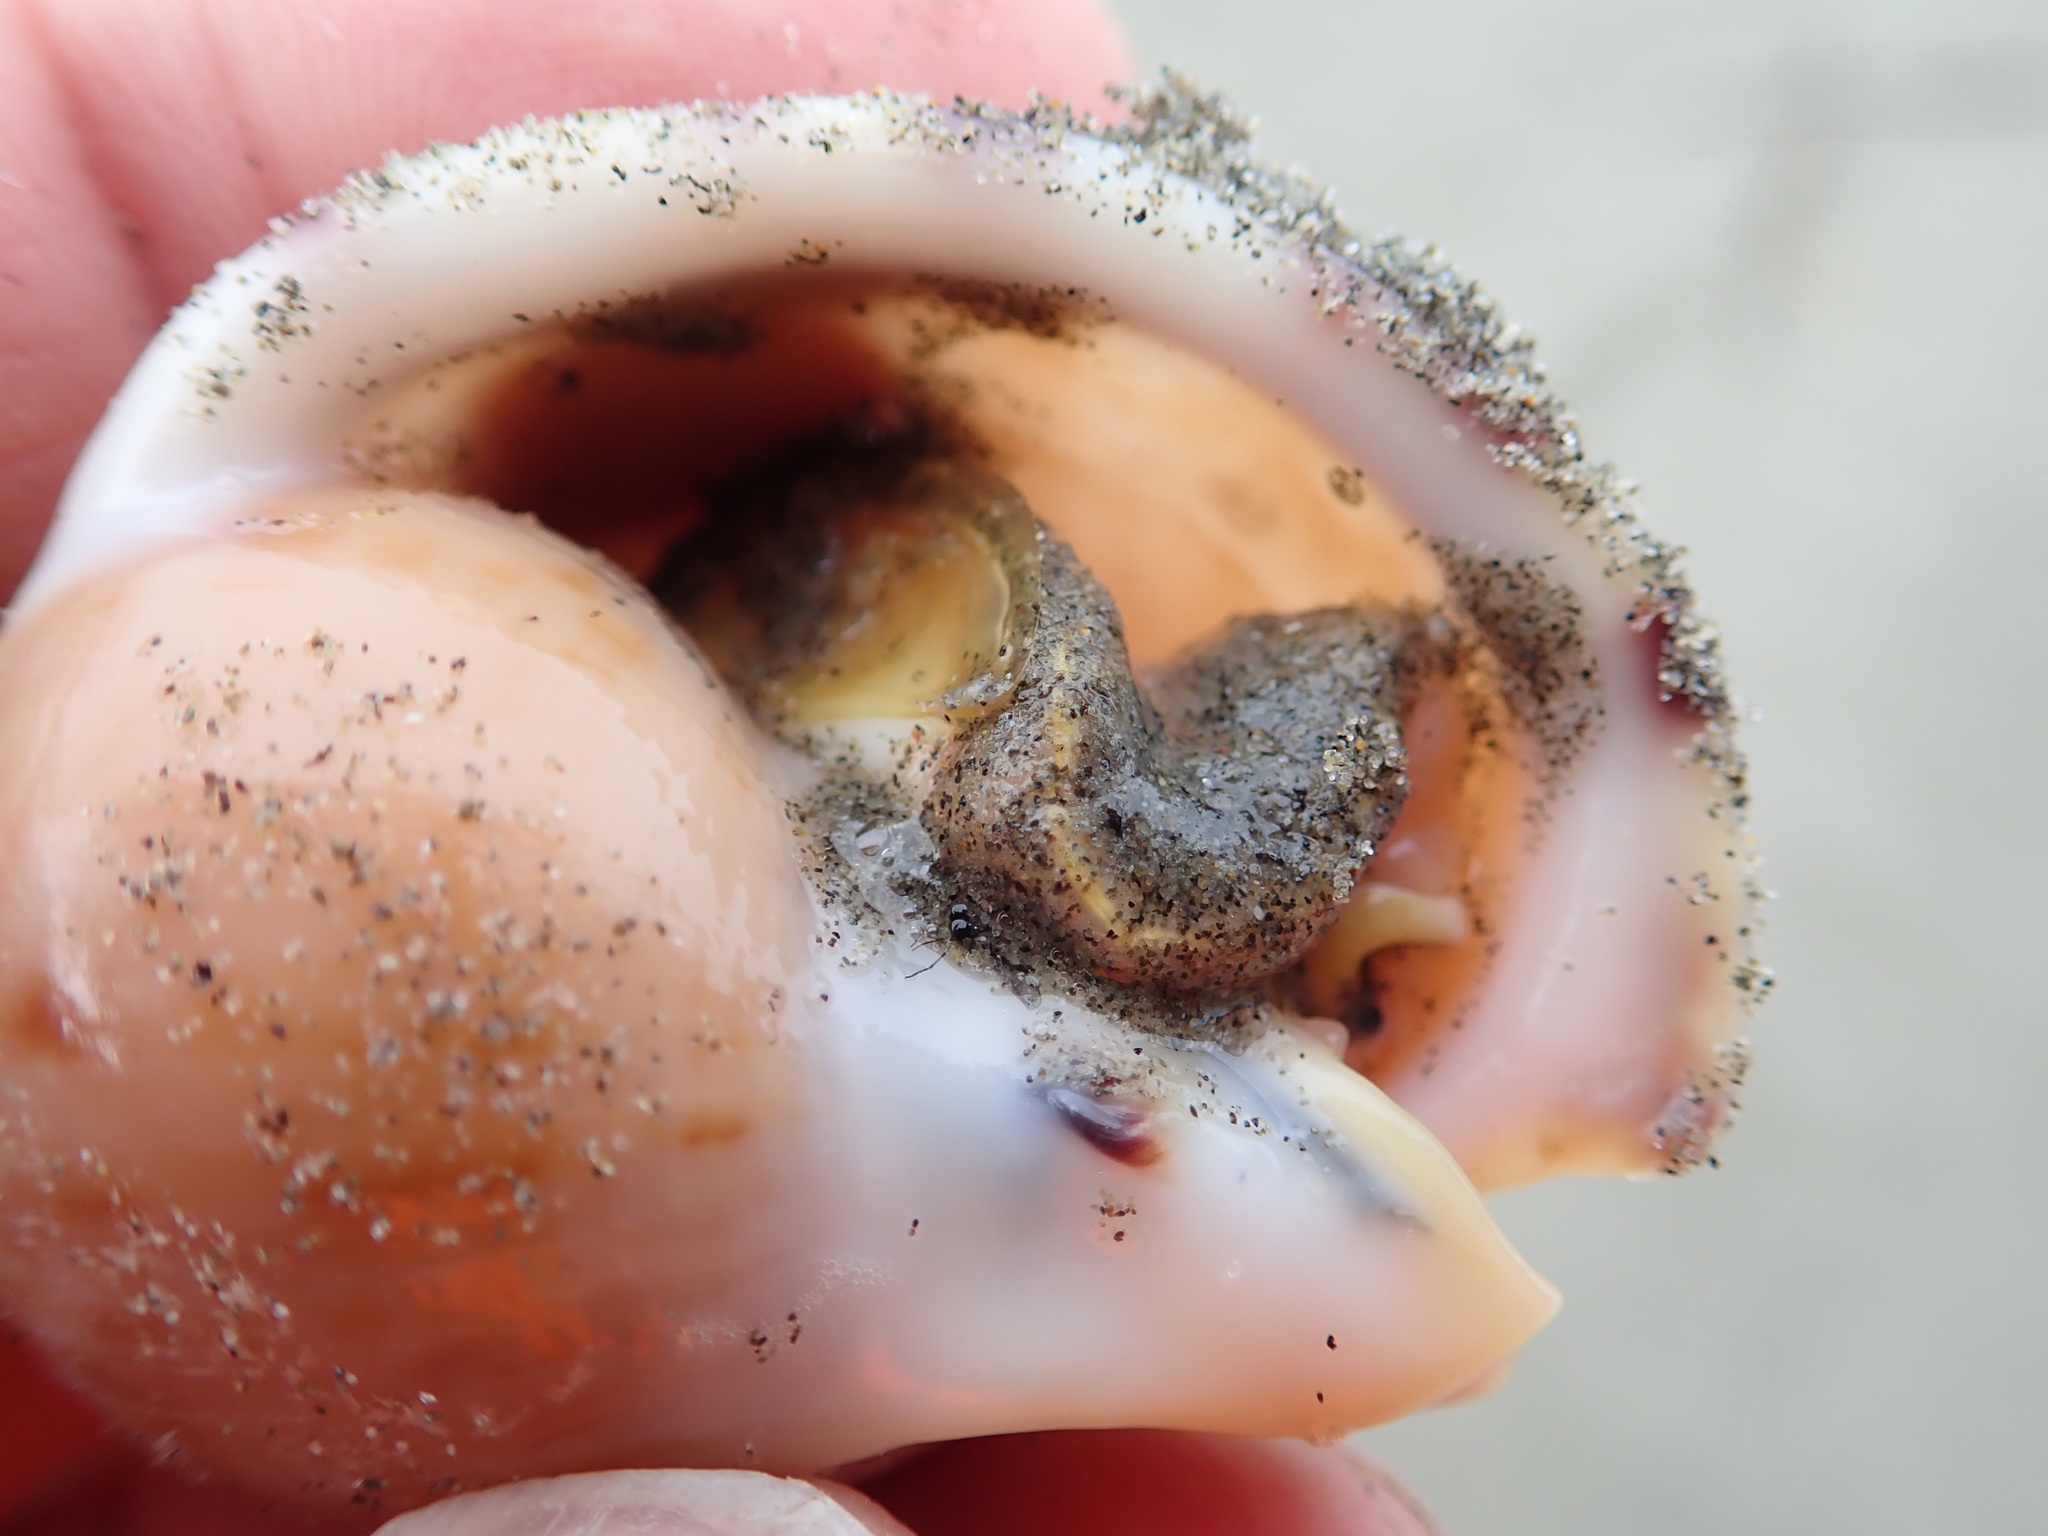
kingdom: Animalia
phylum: Mollusca
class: Gastropoda
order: Littorinimorpha
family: Cassidae
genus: Semicassis
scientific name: Semicassis pyrum
